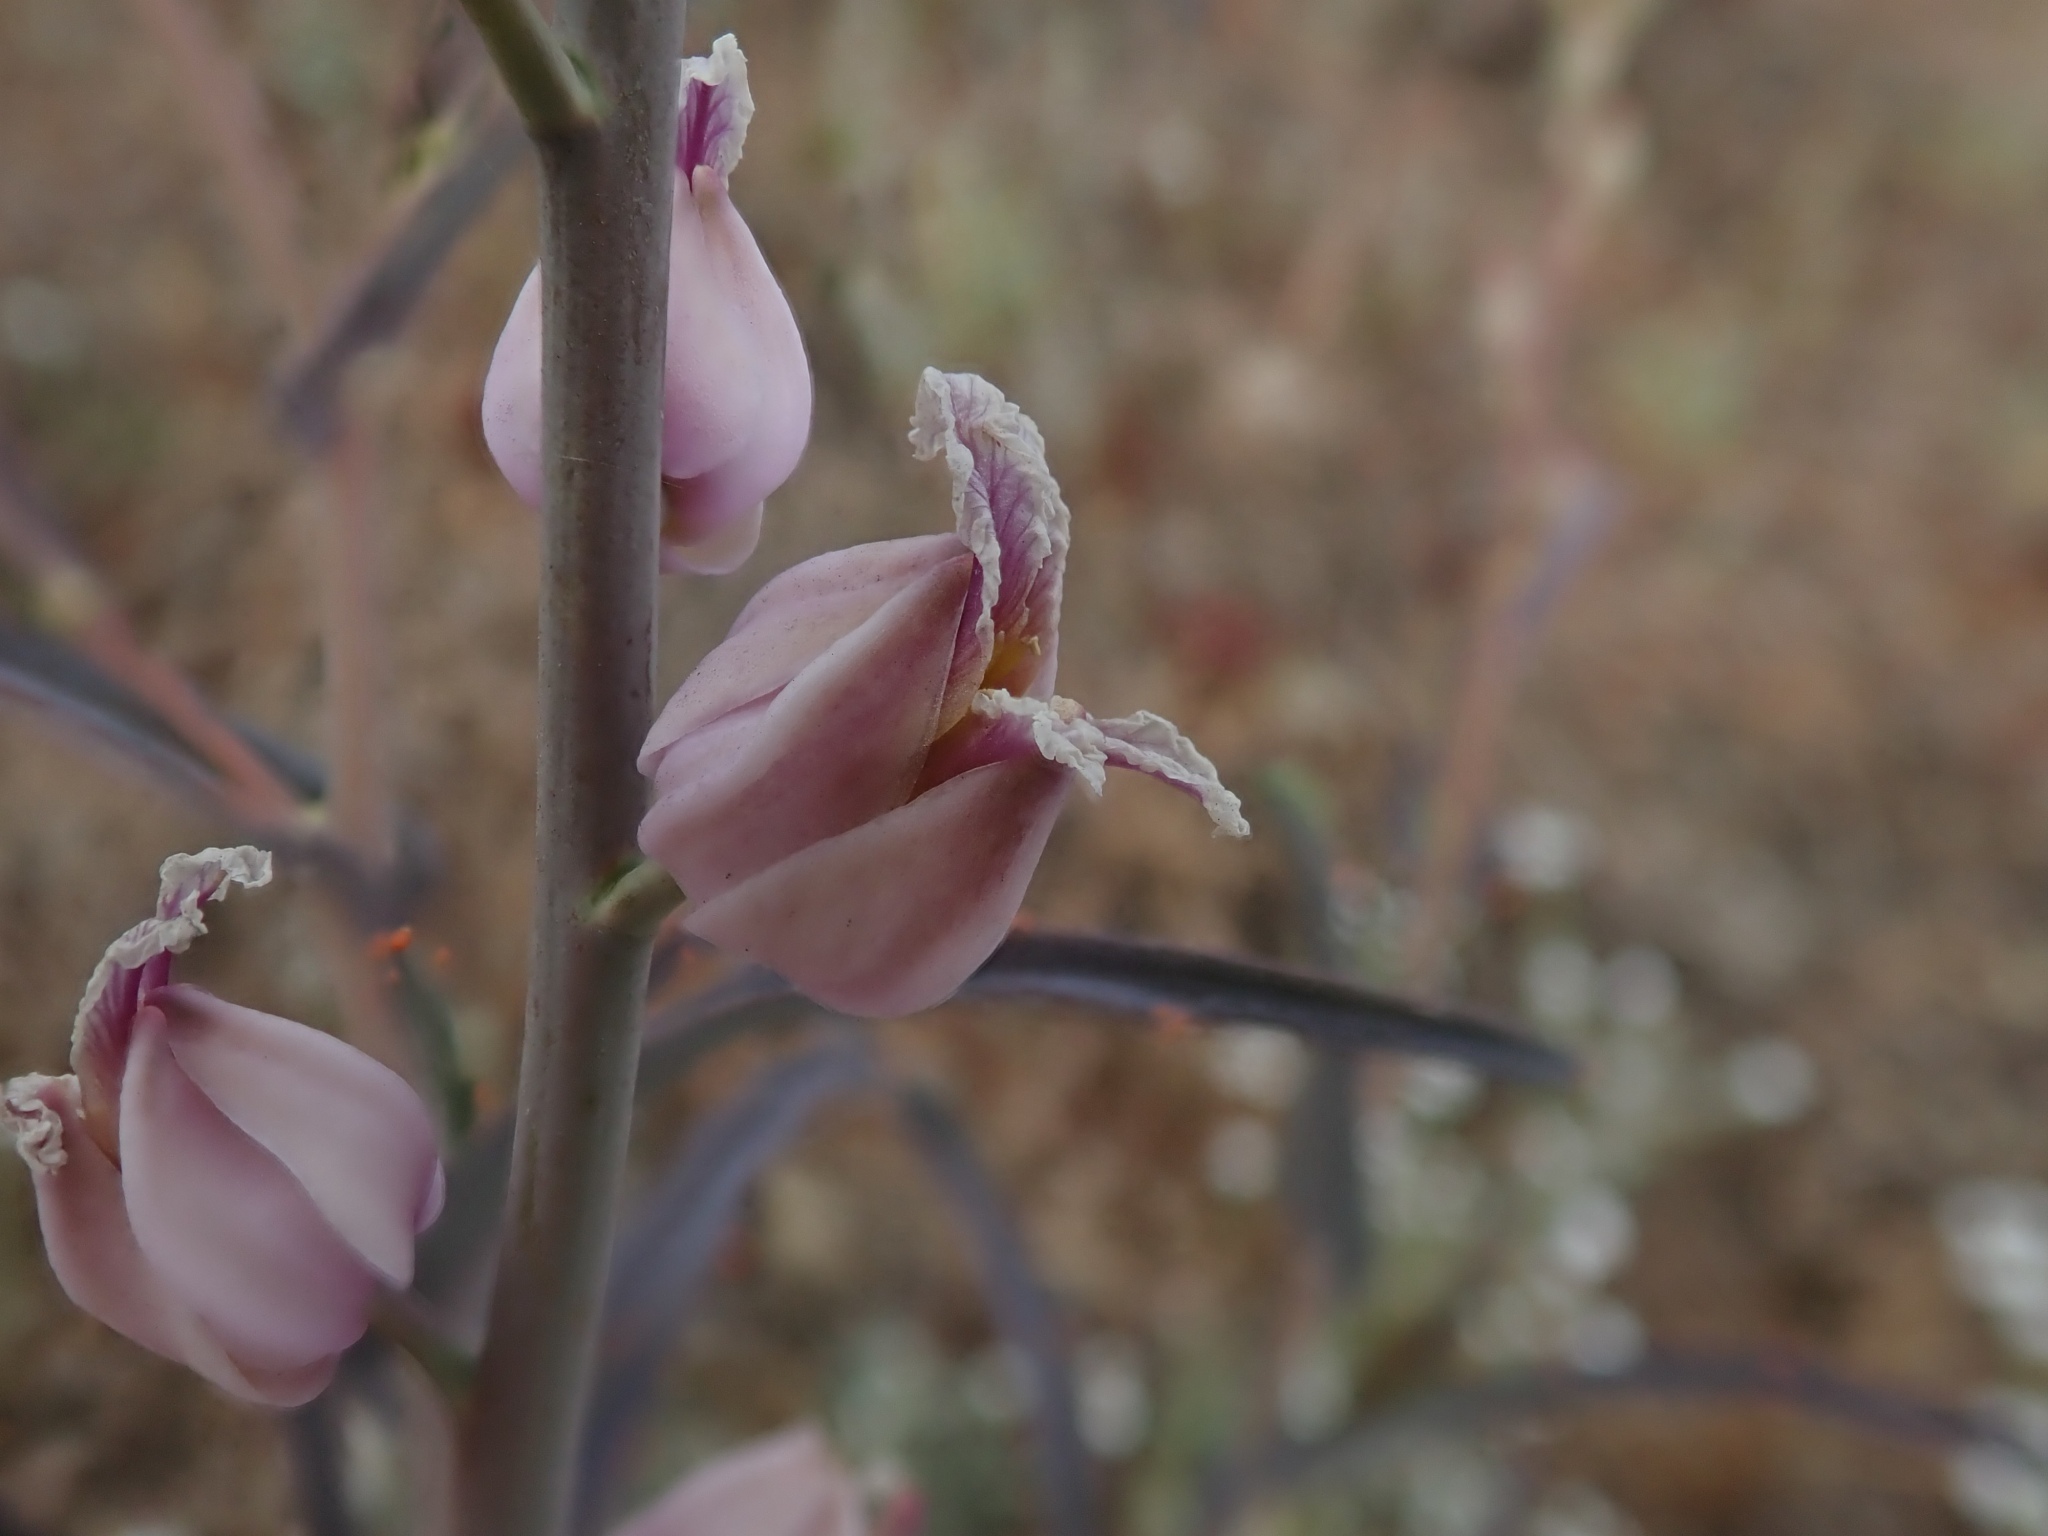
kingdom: Plantae
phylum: Tracheophyta
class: Magnoliopsida
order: Brassicales
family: Brassicaceae
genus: Streptanthus
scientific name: Streptanthus glandulosus
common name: Jewel-flower
